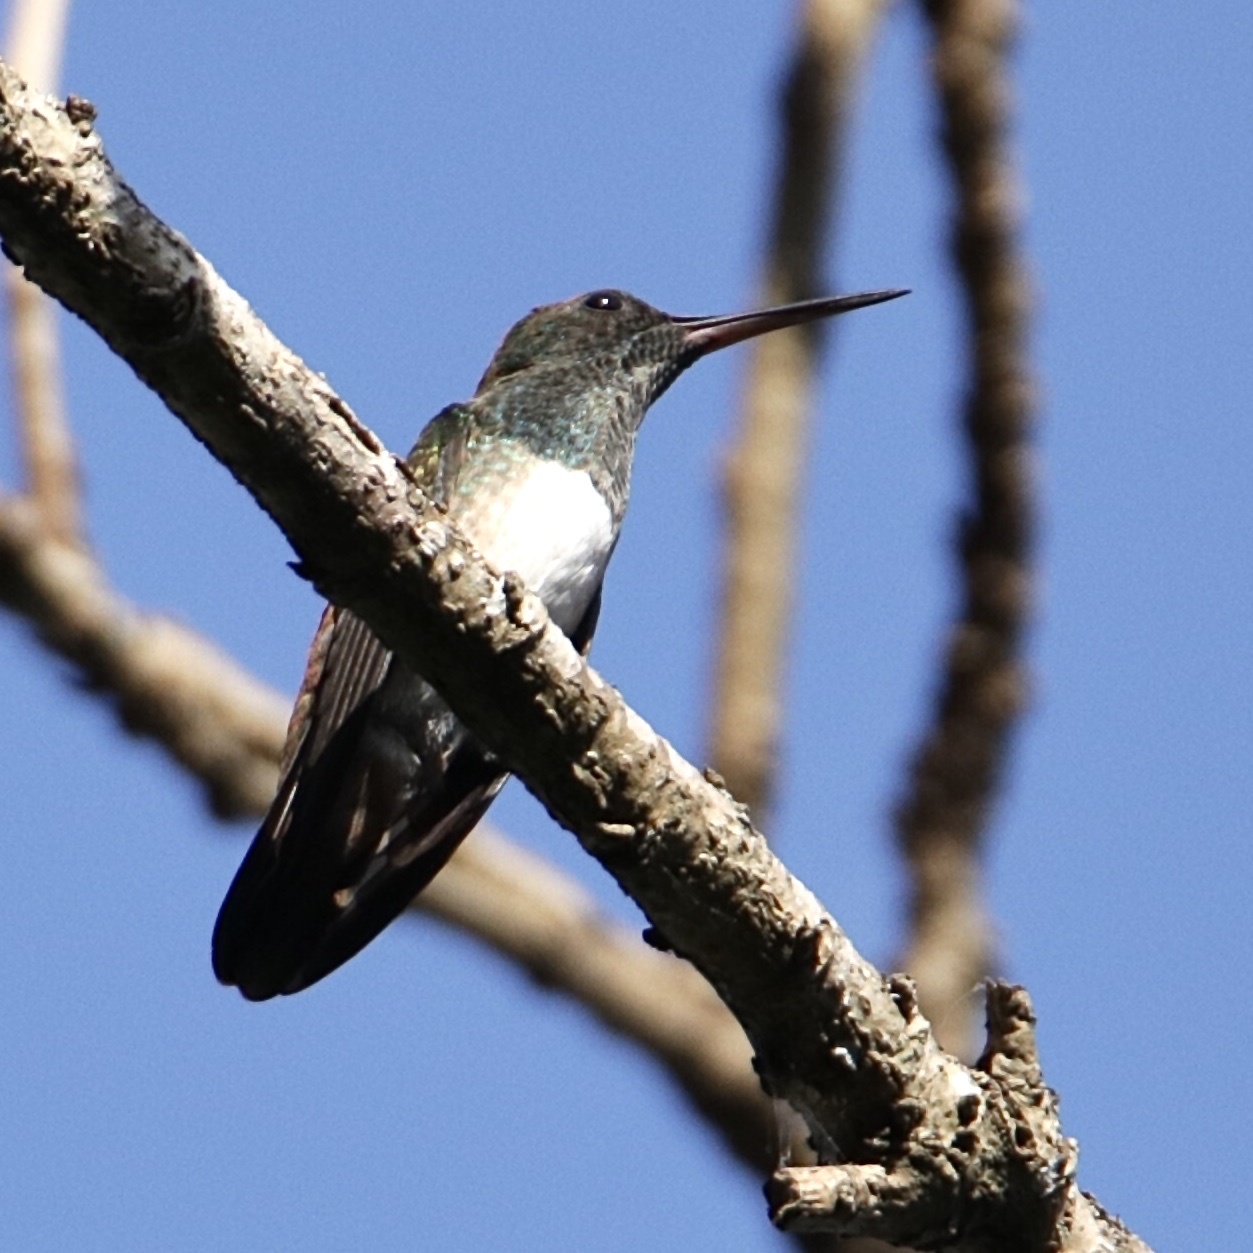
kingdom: Animalia
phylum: Chordata
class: Aves
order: Apodiformes
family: Trochilidae
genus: Saucerottia
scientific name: Saucerottia edward
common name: Snowy-bellied hummingbird
